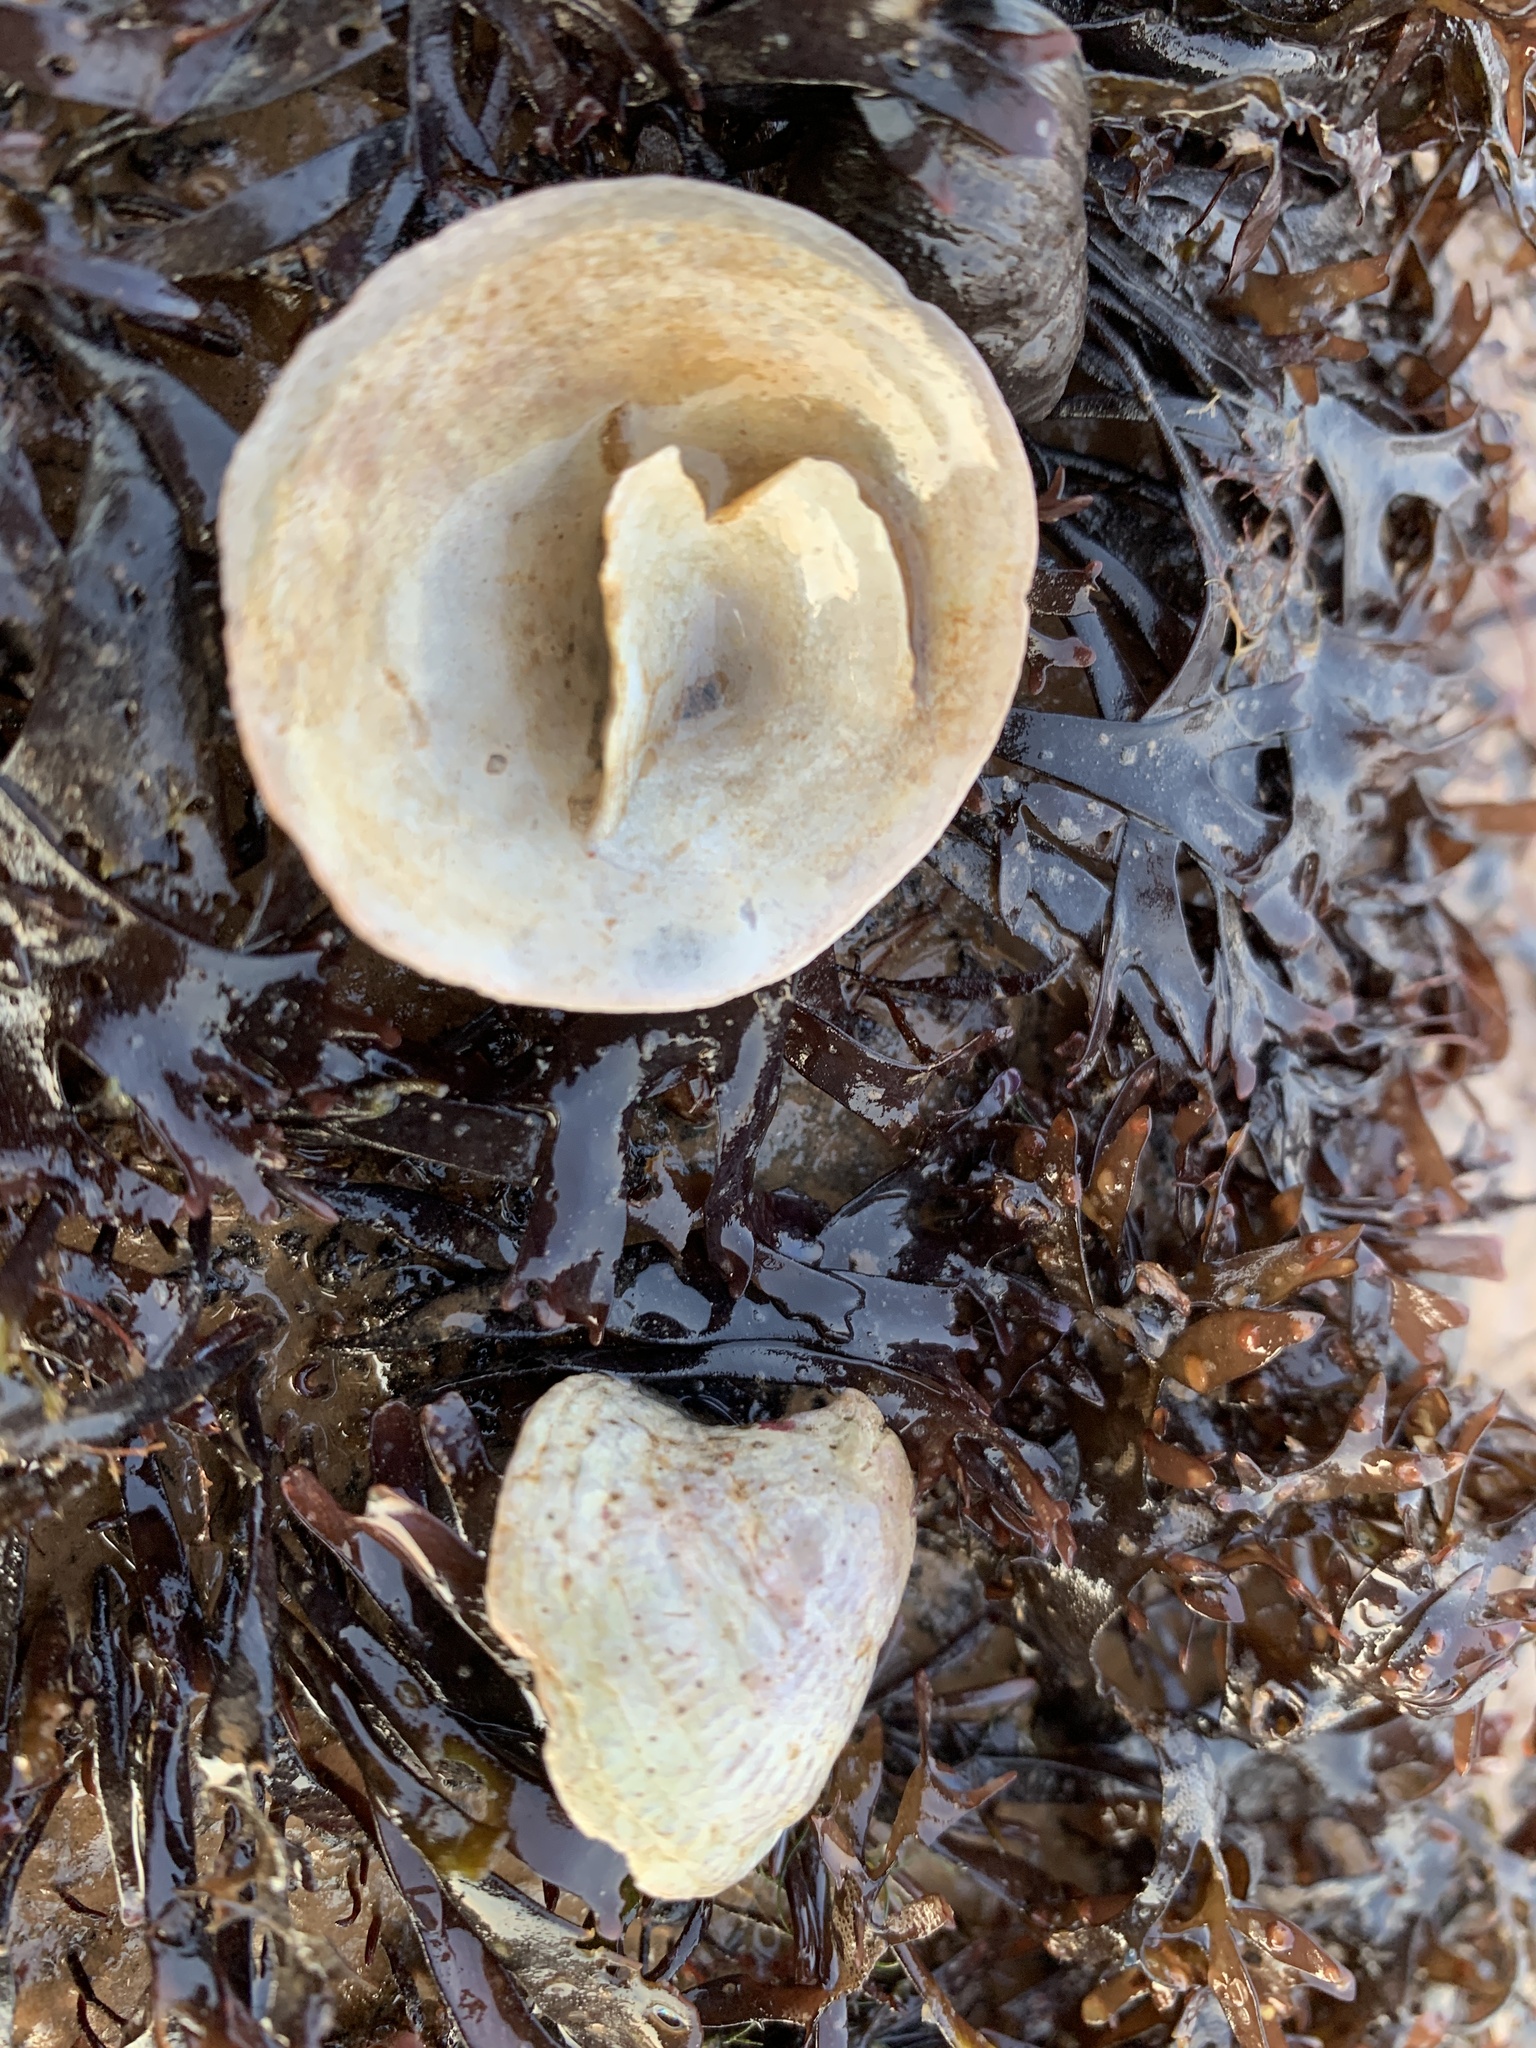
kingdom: Animalia
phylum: Mollusca
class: Gastropoda
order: Littorinimorpha
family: Calyptraeidae
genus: Crucibulum
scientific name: Crucibulum striatum
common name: Striate cup-and -saucer
